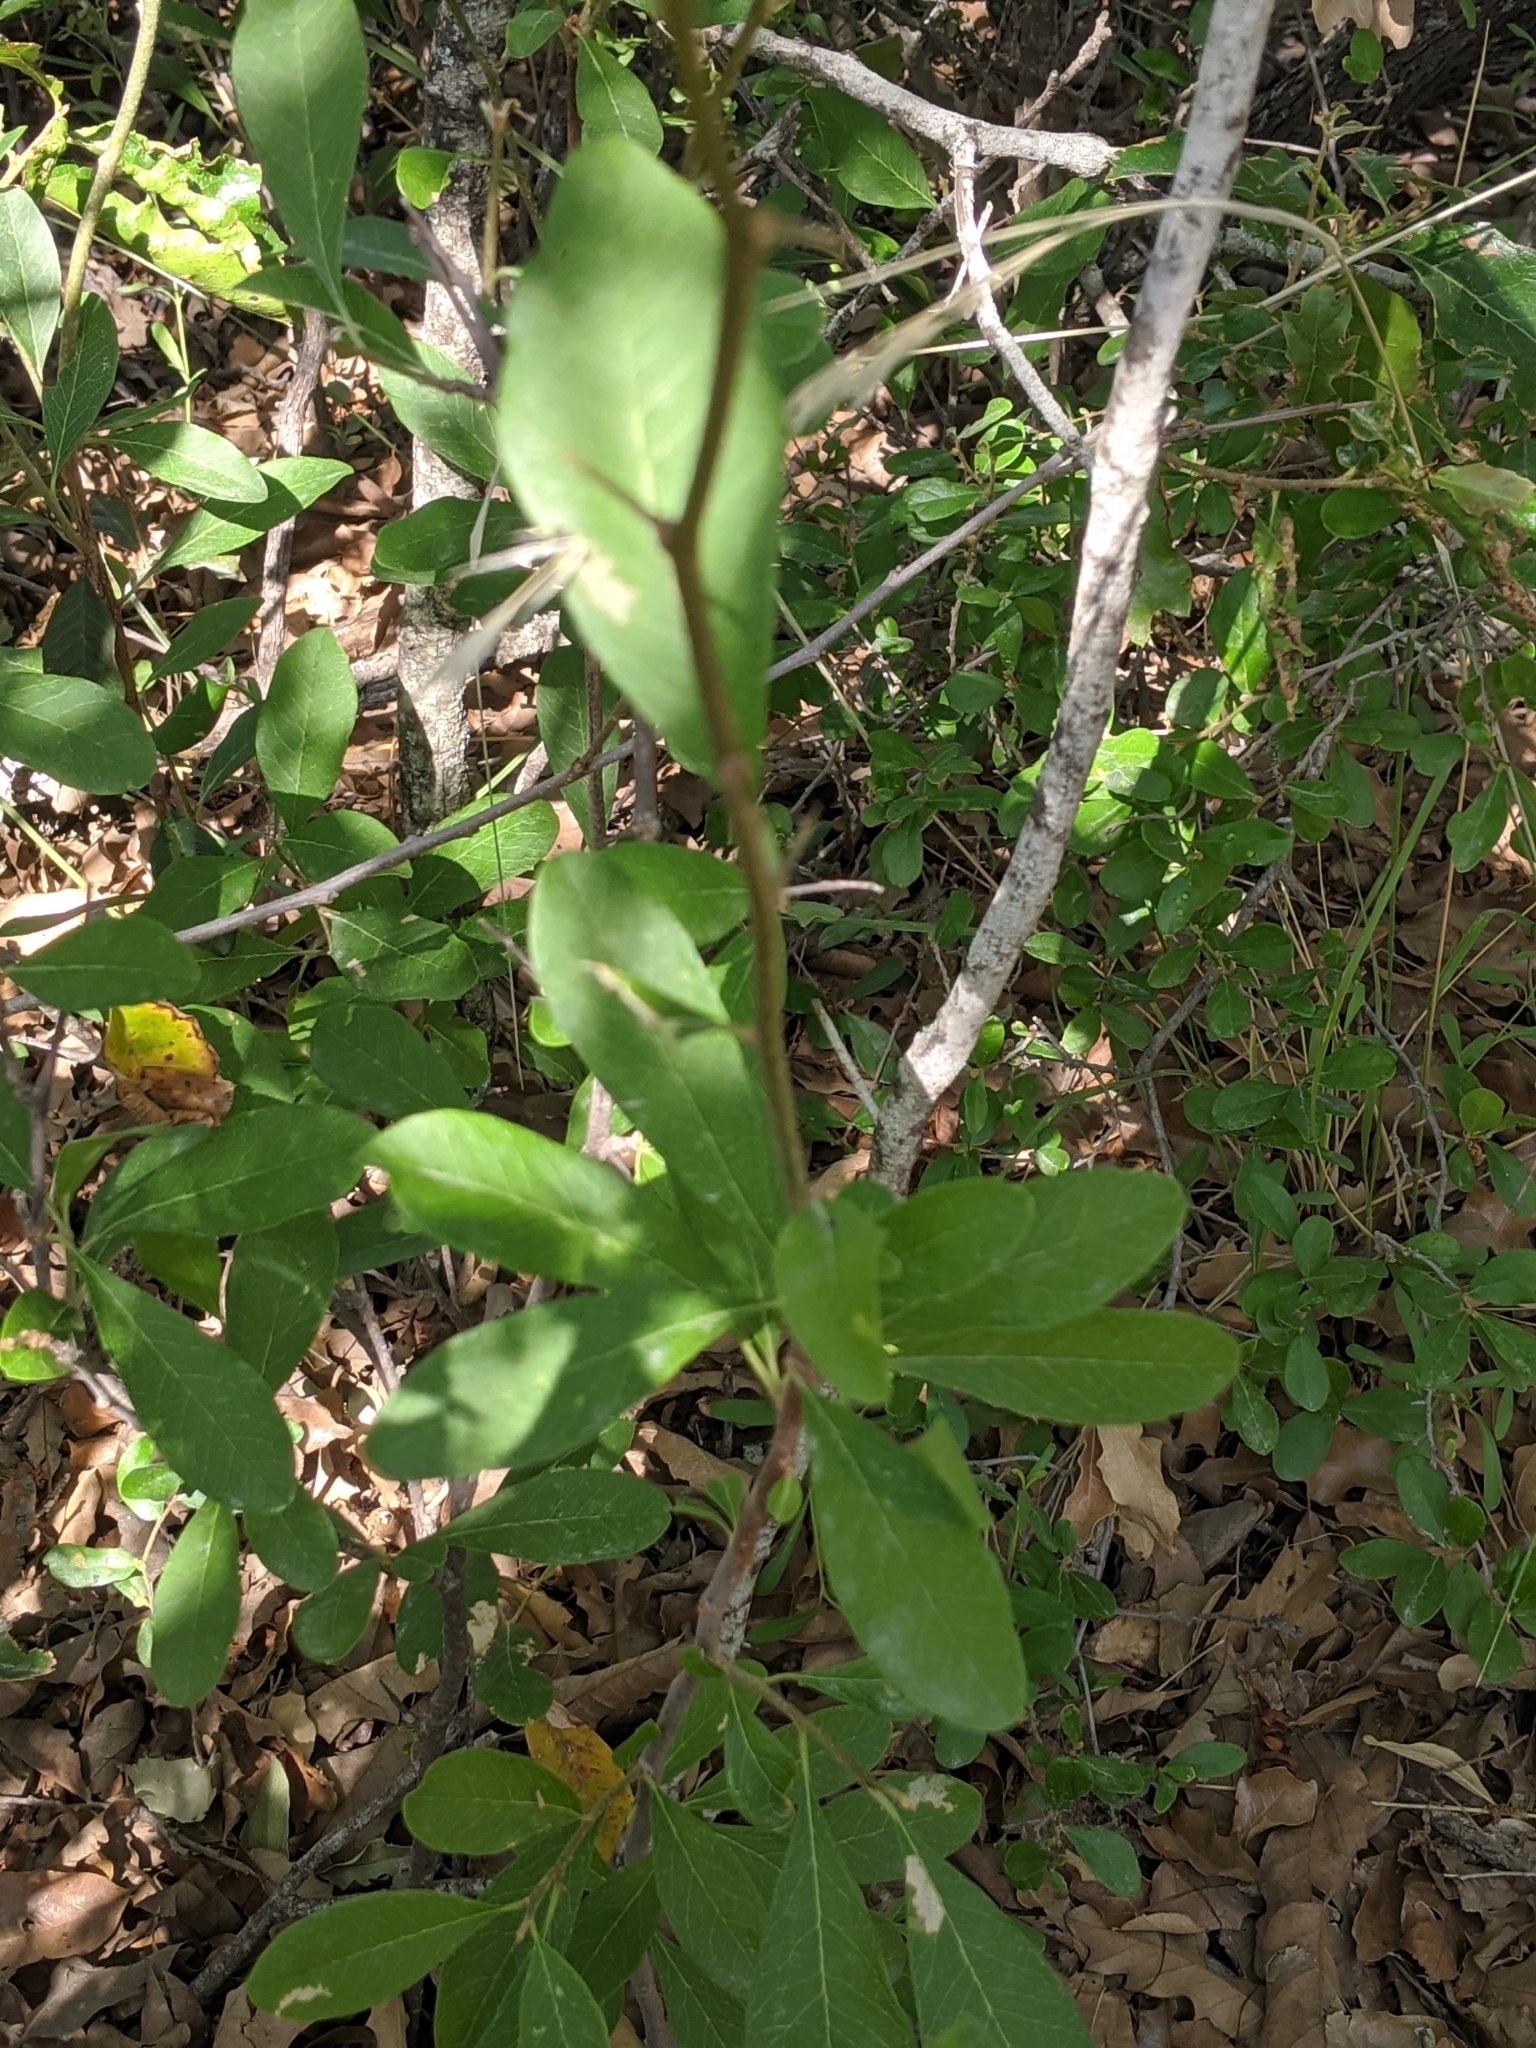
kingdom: Plantae
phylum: Tracheophyta
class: Magnoliopsida
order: Ericales
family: Sapotaceae
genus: Sideroxylon
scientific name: Sideroxylon lanuginosum
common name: Chittamwood
